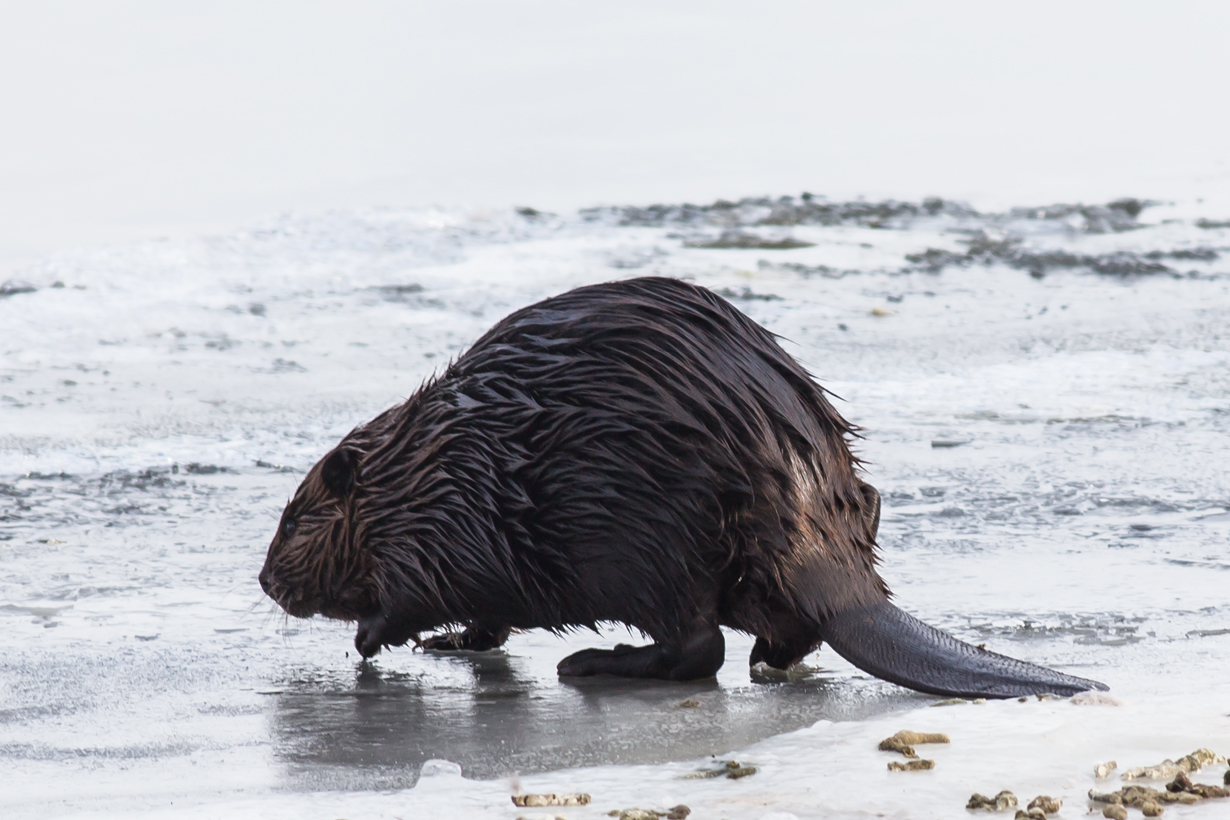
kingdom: Animalia
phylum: Chordata
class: Mammalia
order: Rodentia
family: Castoridae
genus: Castor
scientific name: Castor canadensis
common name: American beaver
